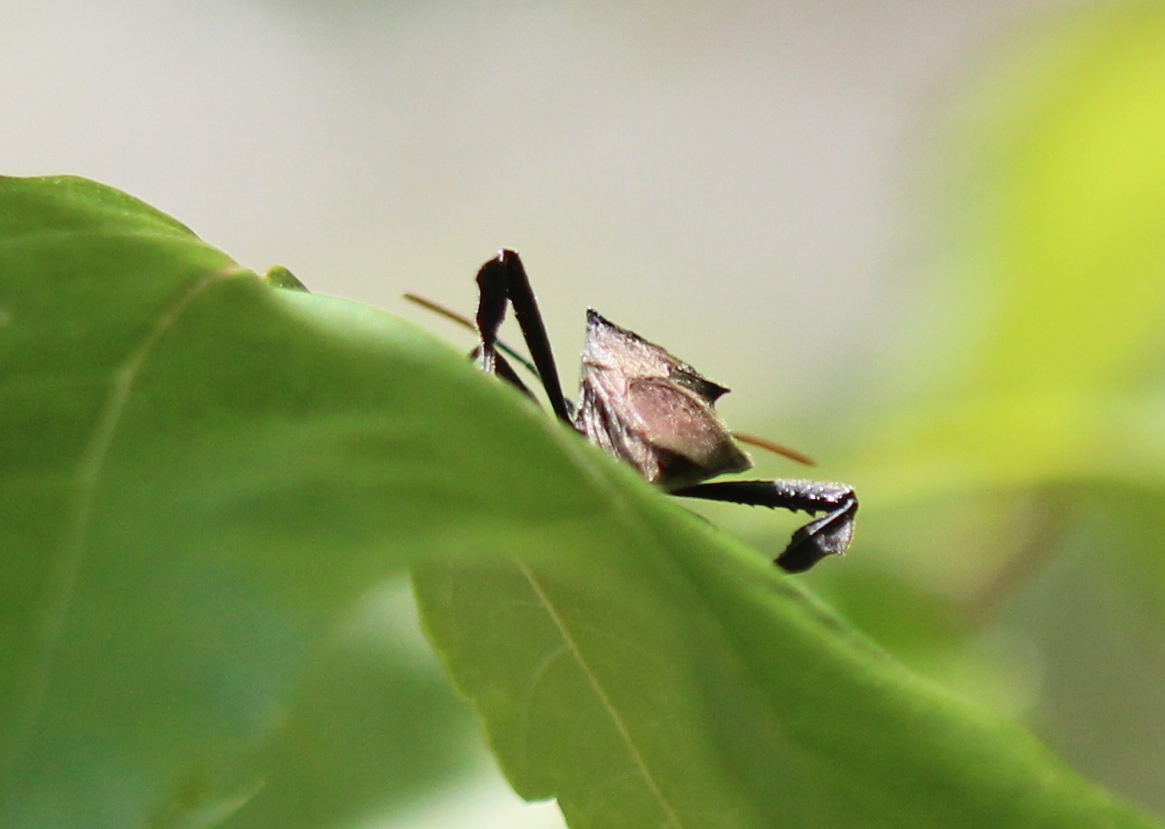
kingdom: Animalia
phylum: Arthropoda
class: Insecta
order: Hemiptera
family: Coreidae
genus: Acanthocephala
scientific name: Acanthocephala terminalis
